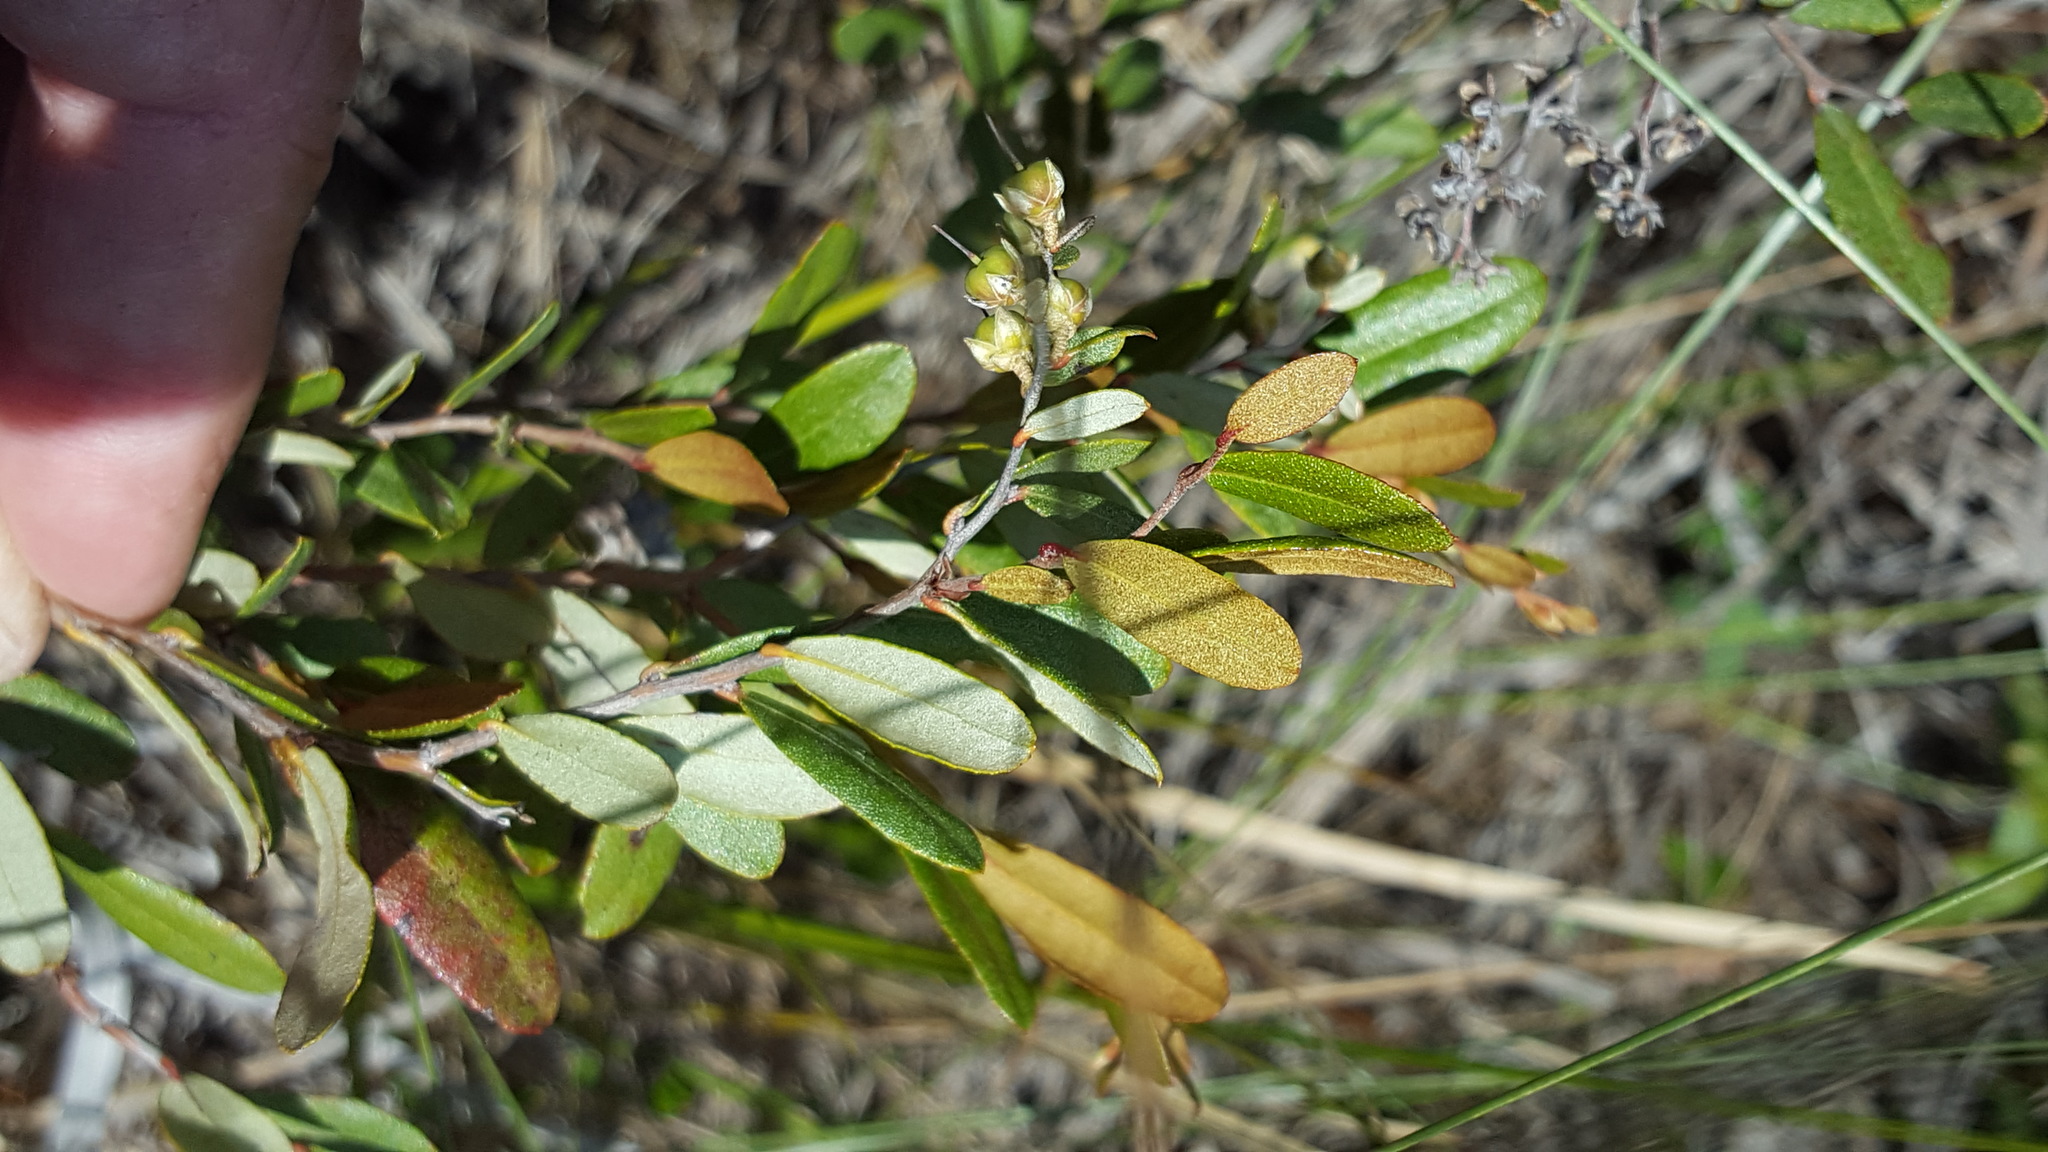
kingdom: Plantae
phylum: Tracheophyta
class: Magnoliopsida
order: Ericales
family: Ericaceae
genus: Chamaedaphne
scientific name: Chamaedaphne calyculata
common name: Leatherleaf
